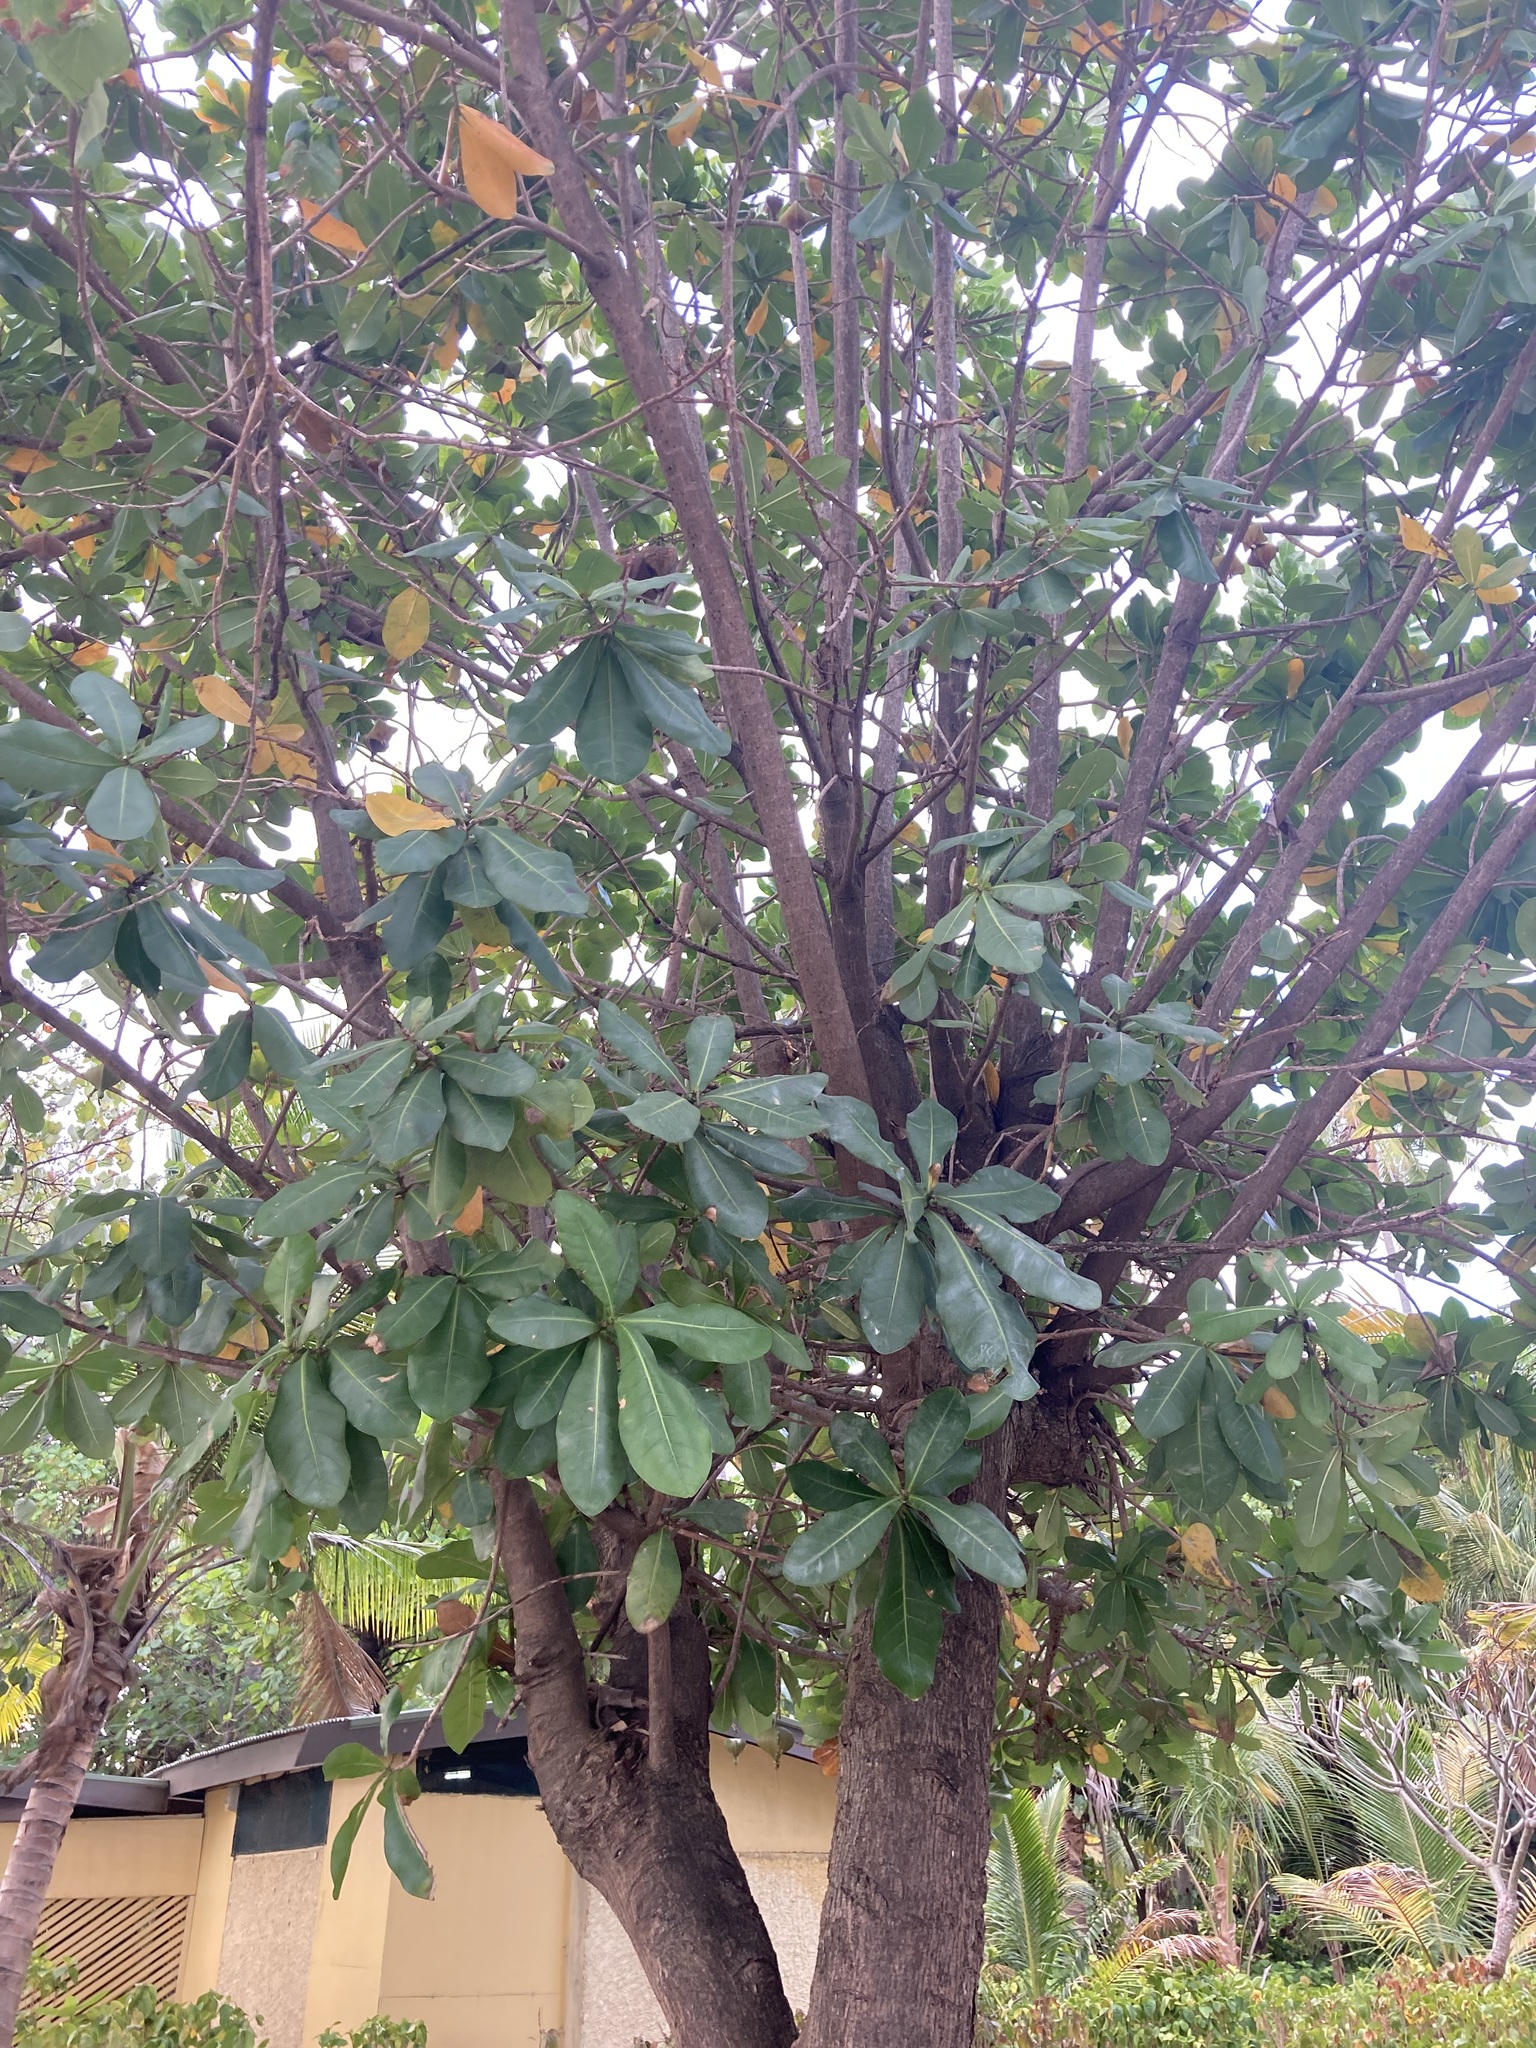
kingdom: Plantae
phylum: Tracheophyta
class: Magnoliopsida
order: Ericales
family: Lecythidaceae
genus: Barringtonia
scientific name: Barringtonia asiatica
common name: Mango-pine
